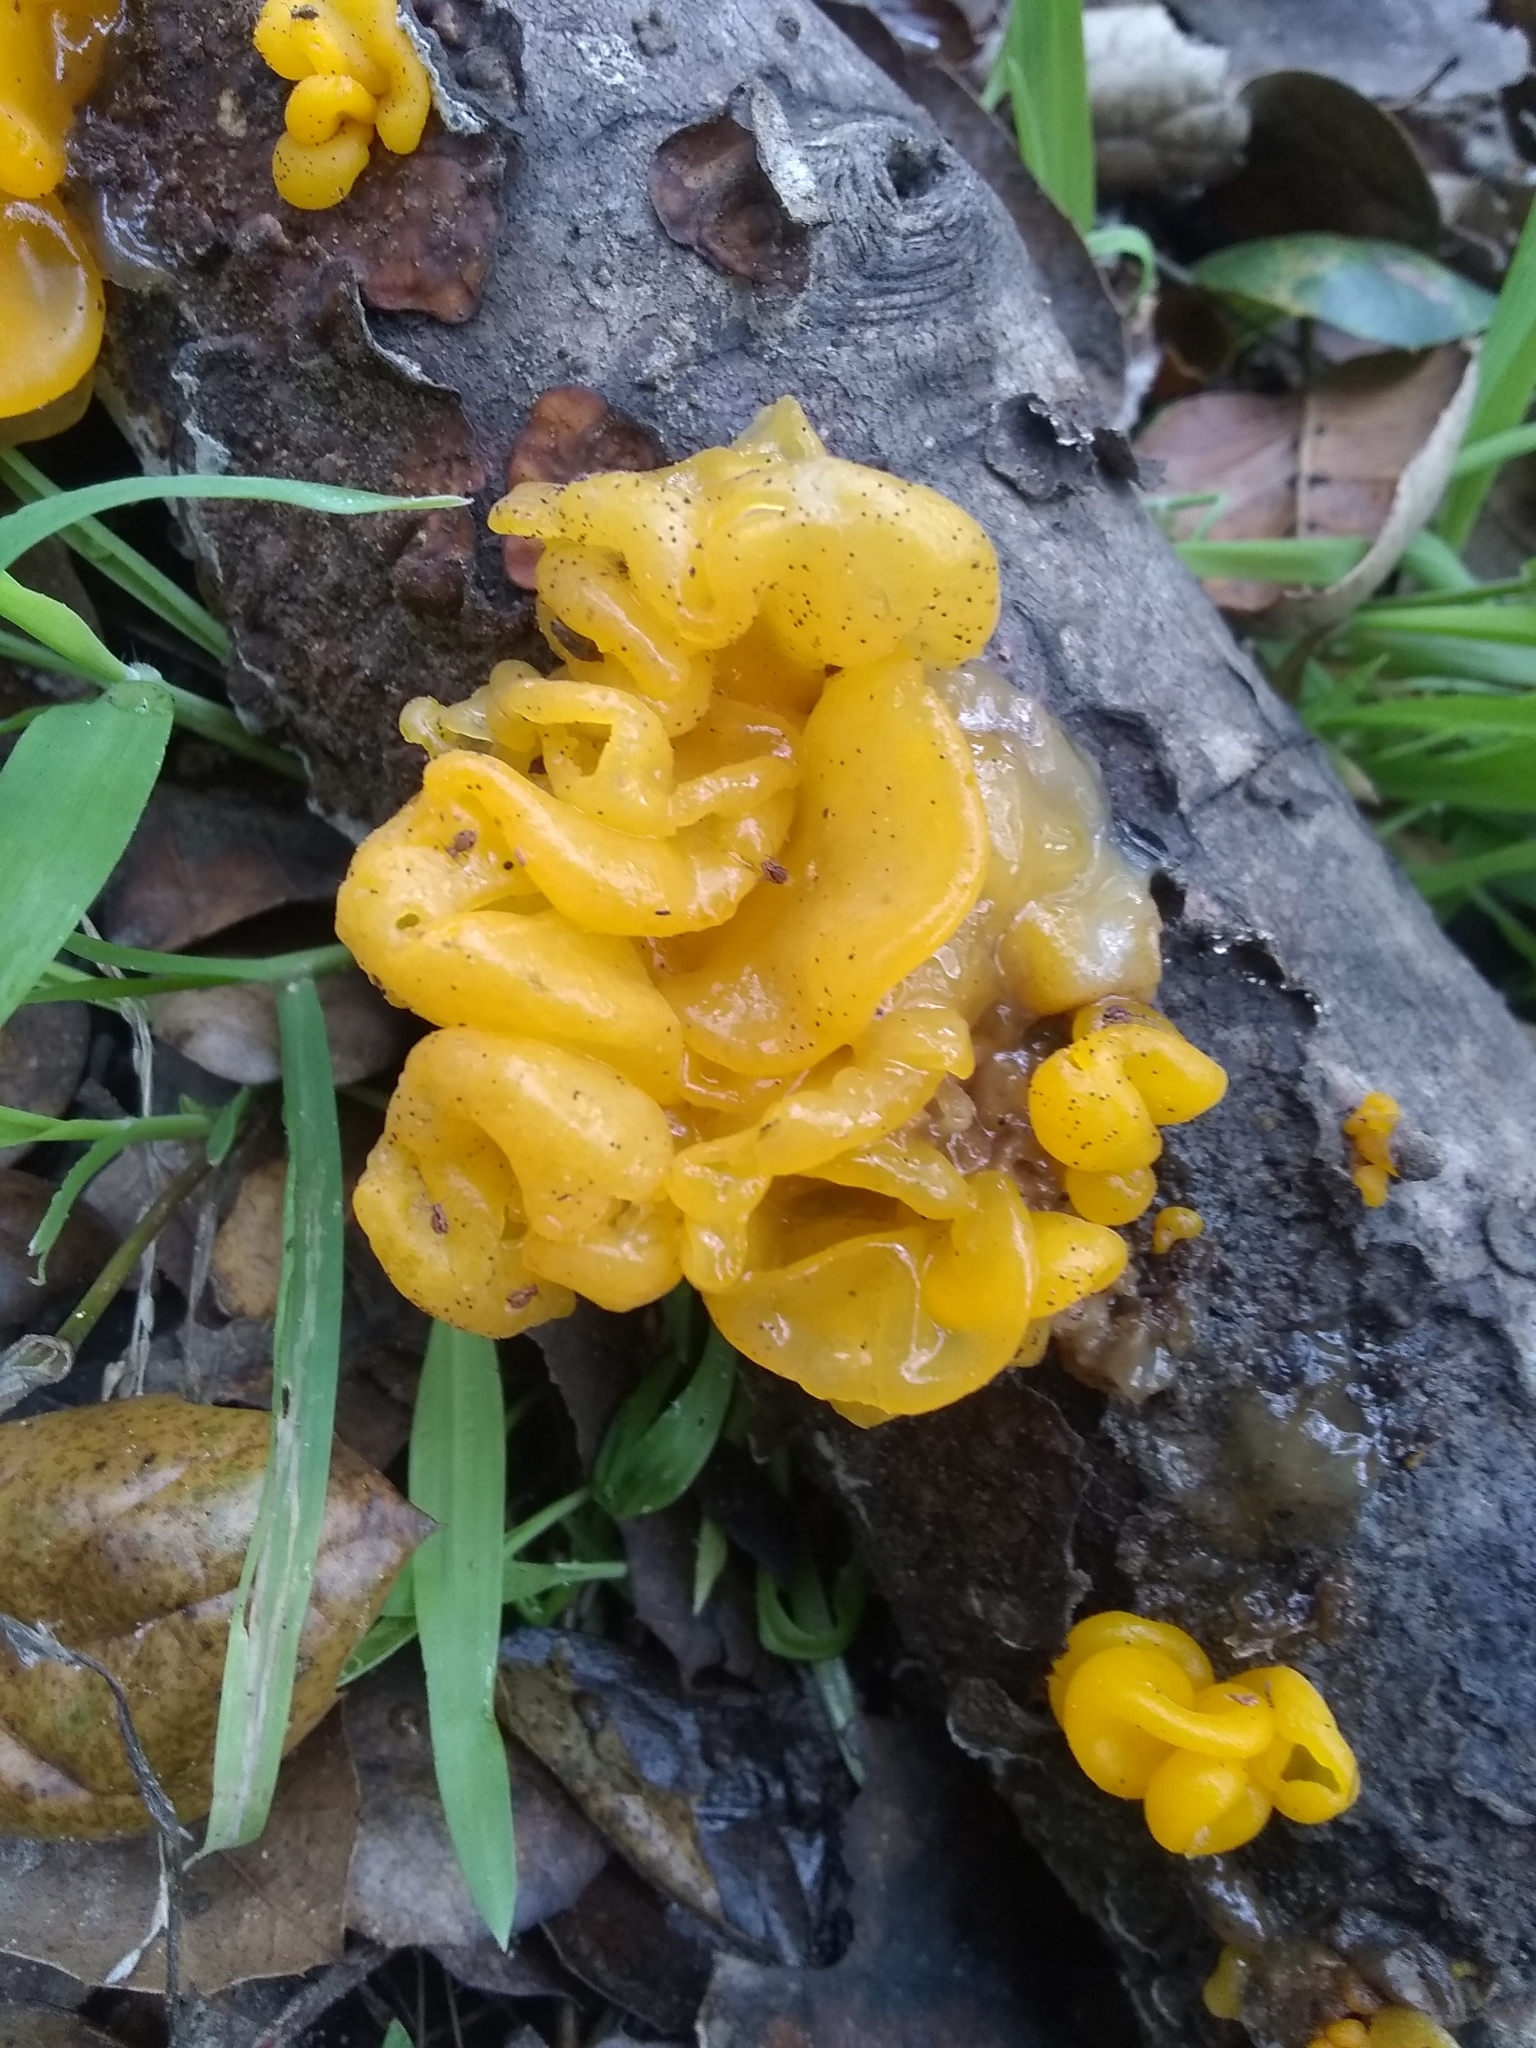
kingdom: Fungi
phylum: Basidiomycota
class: Tremellomycetes
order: Tremellales
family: Tremellaceae
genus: Tremella
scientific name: Tremella mesenterica
